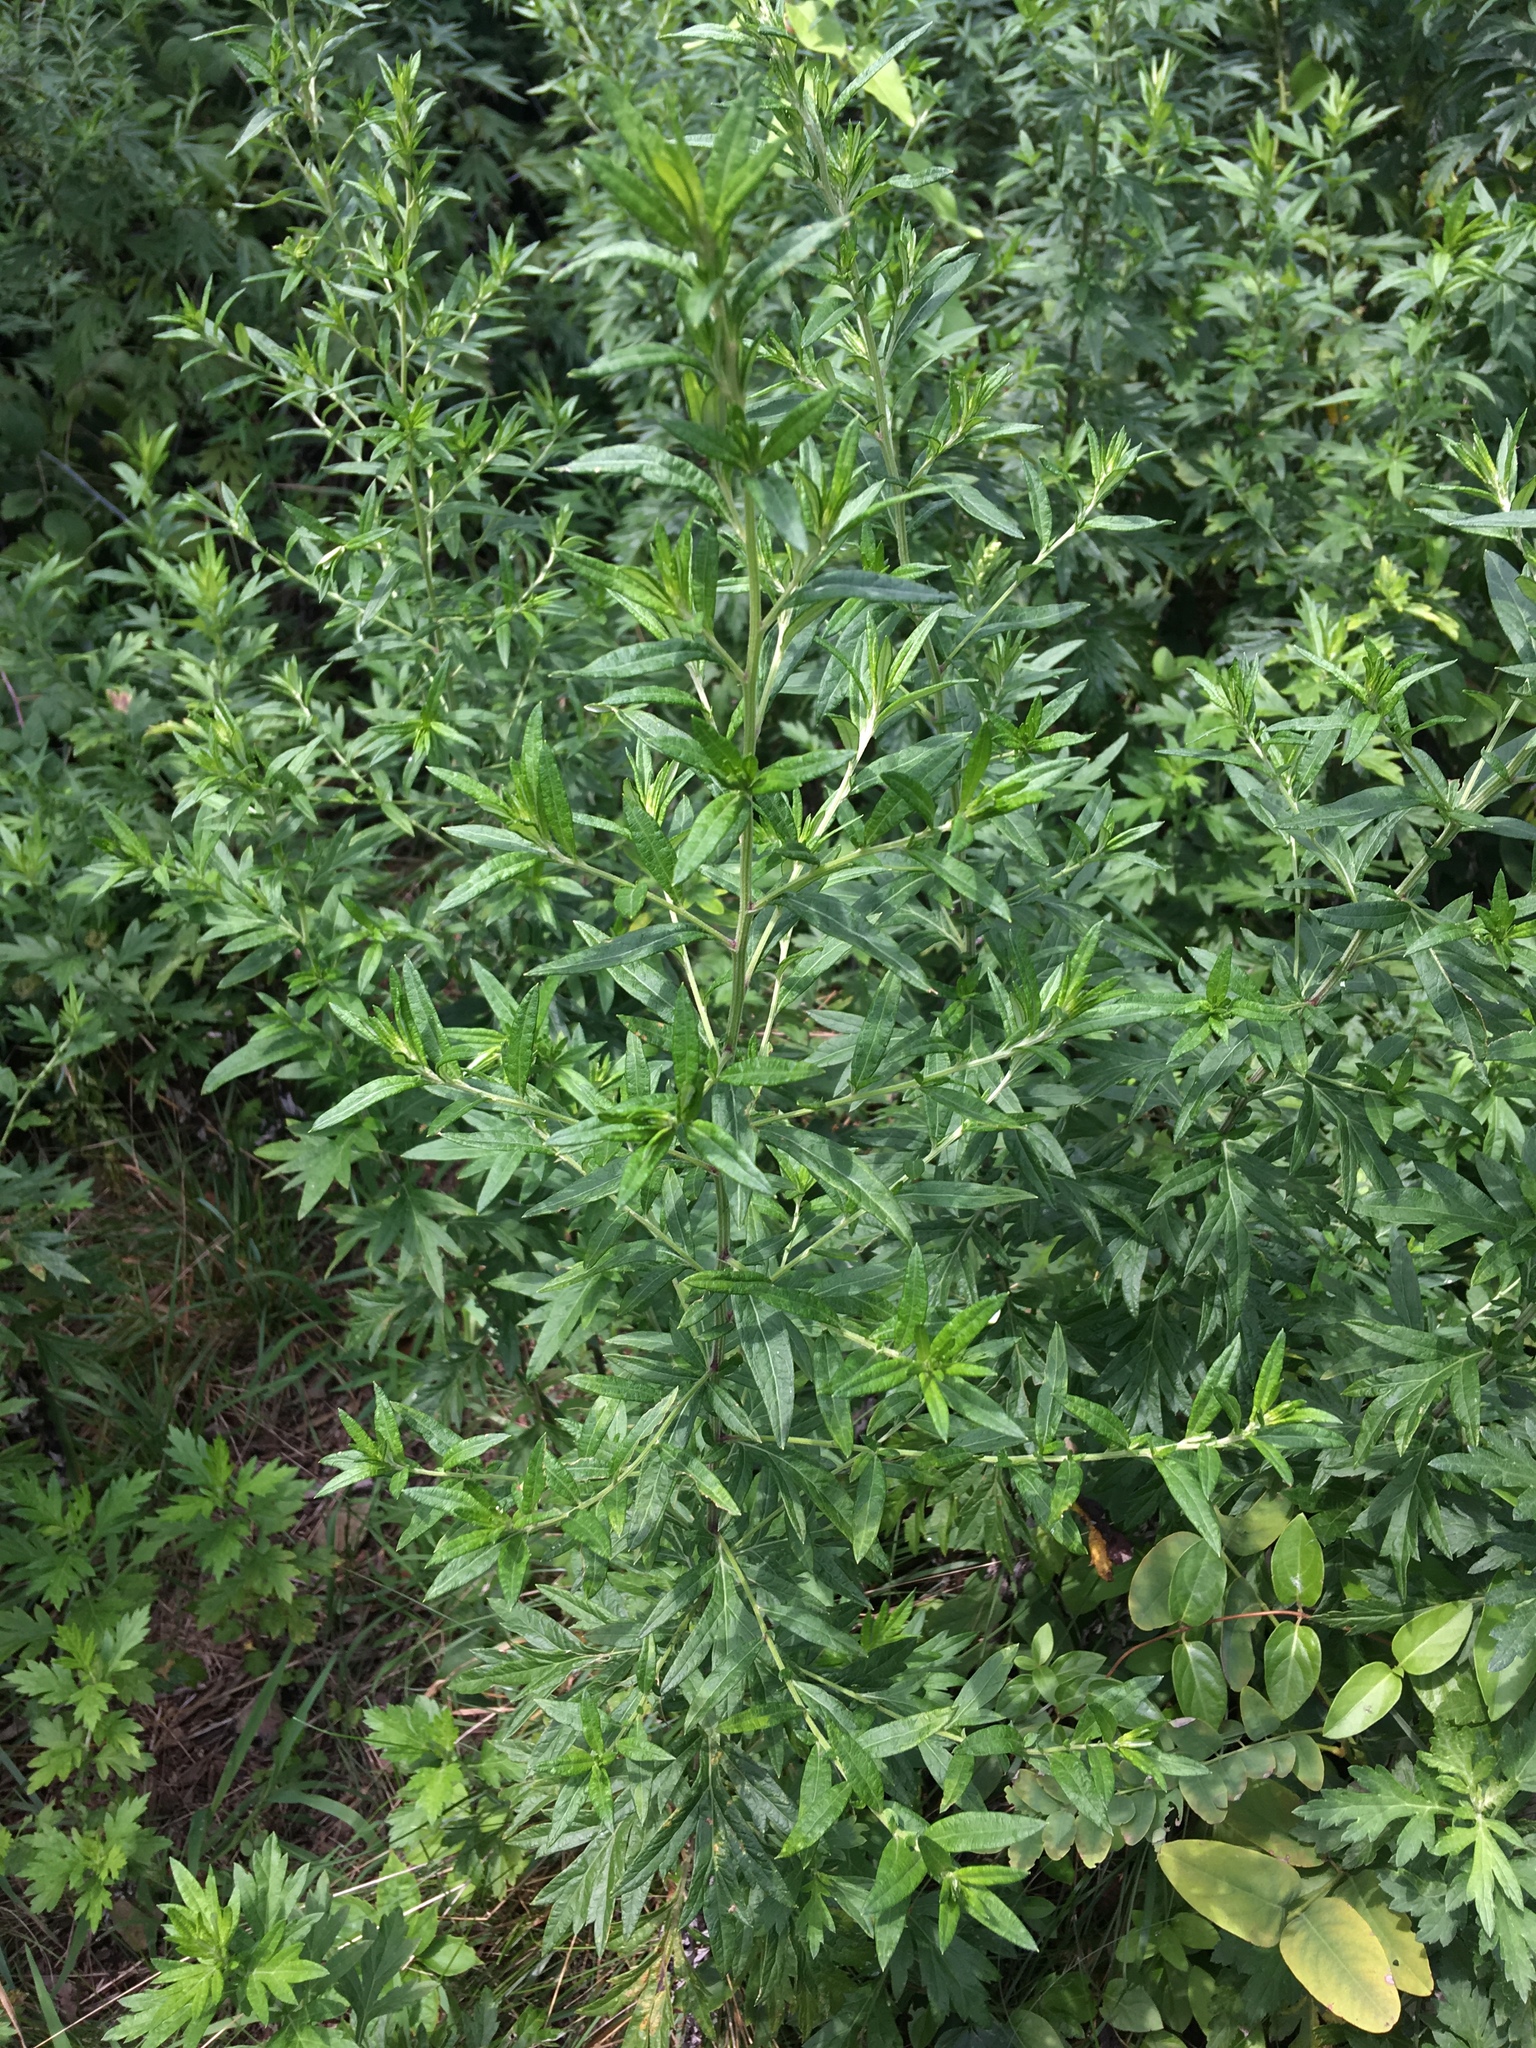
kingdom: Plantae
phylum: Tracheophyta
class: Magnoliopsida
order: Asterales
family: Asteraceae
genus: Artemisia
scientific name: Artemisia vulgaris
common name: Mugwort
